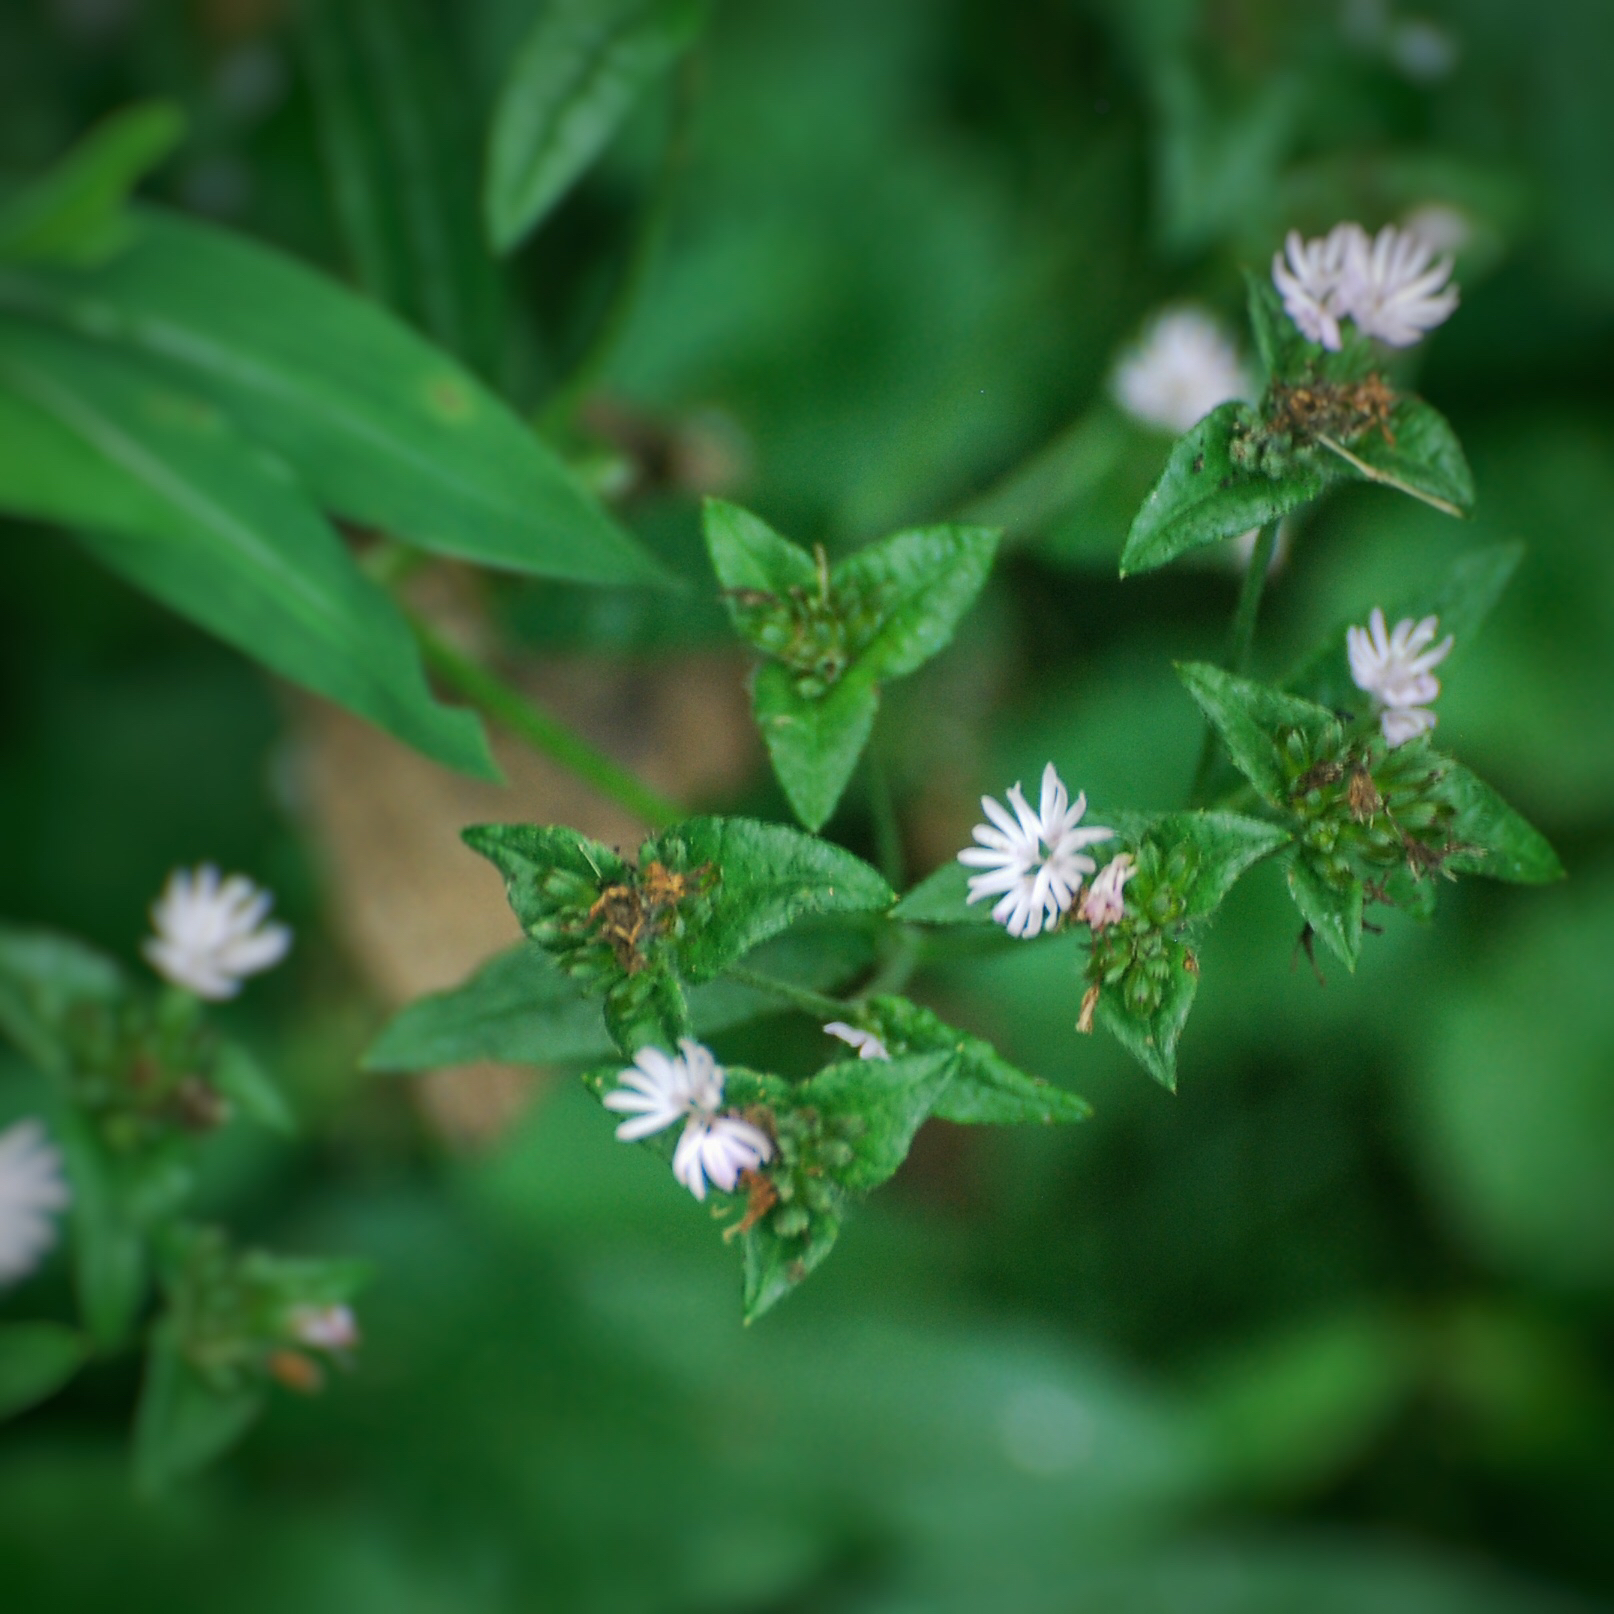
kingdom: Plantae
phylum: Tracheophyta
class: Magnoliopsida
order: Asterales
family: Asteraceae
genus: Elephantopus
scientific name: Elephantopus carolinianus
